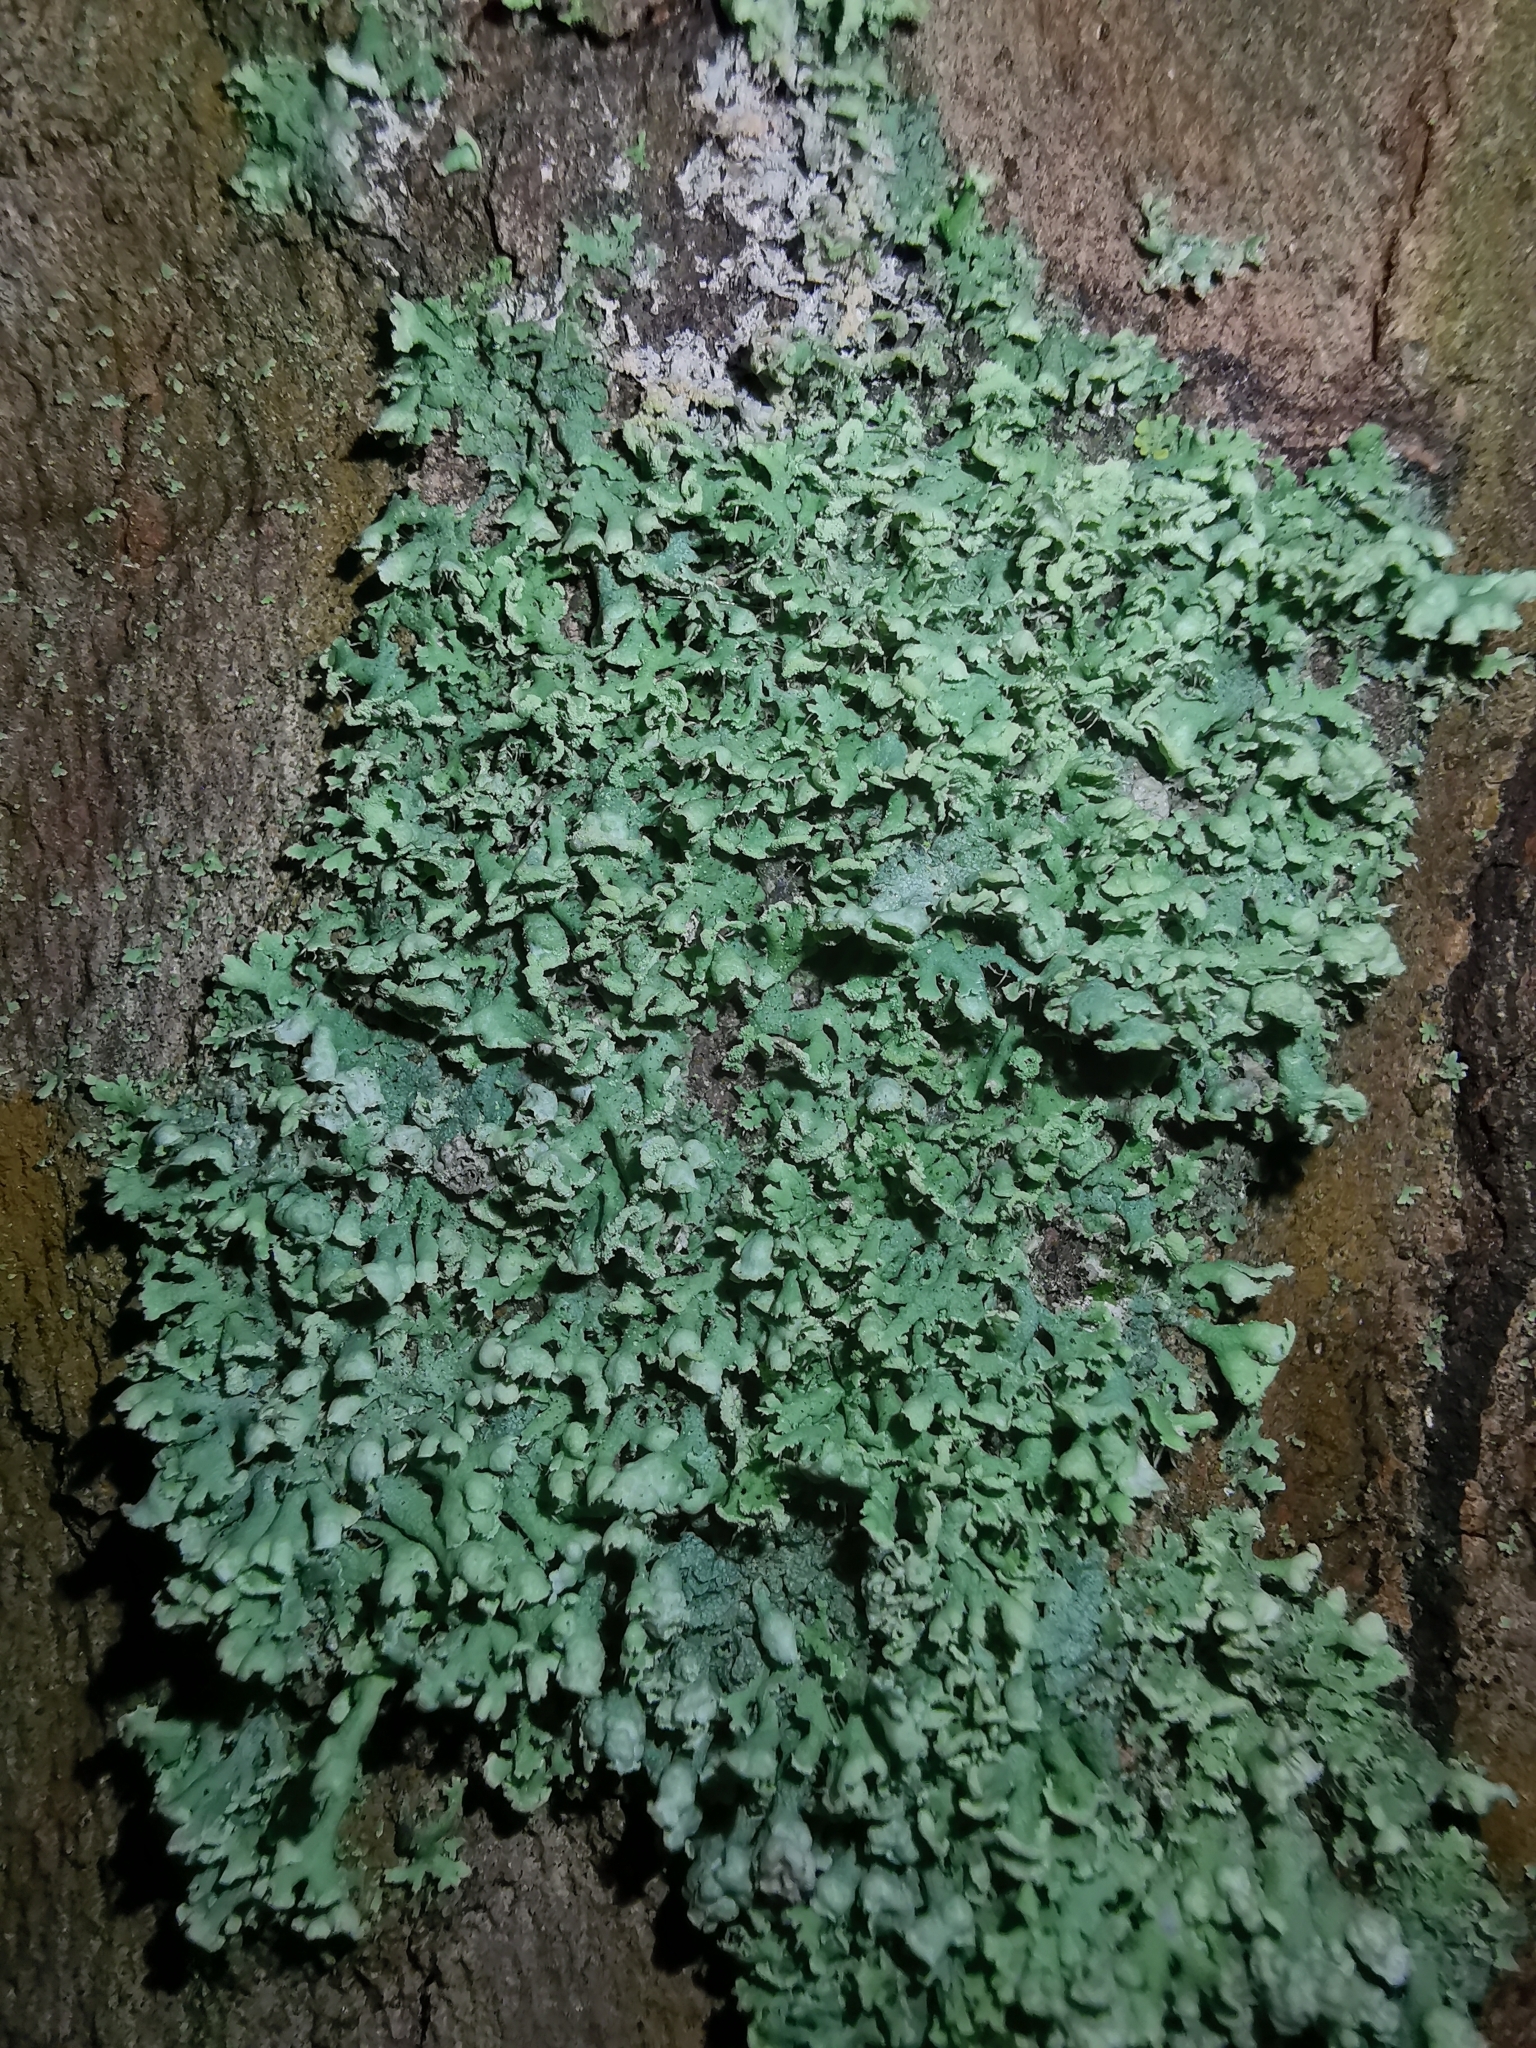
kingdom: Fungi
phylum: Ascomycota
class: Lecanoromycetes
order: Caliciales
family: Physciaceae
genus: Physcia
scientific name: Physcia adscendens
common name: Hooded rosette lichen
